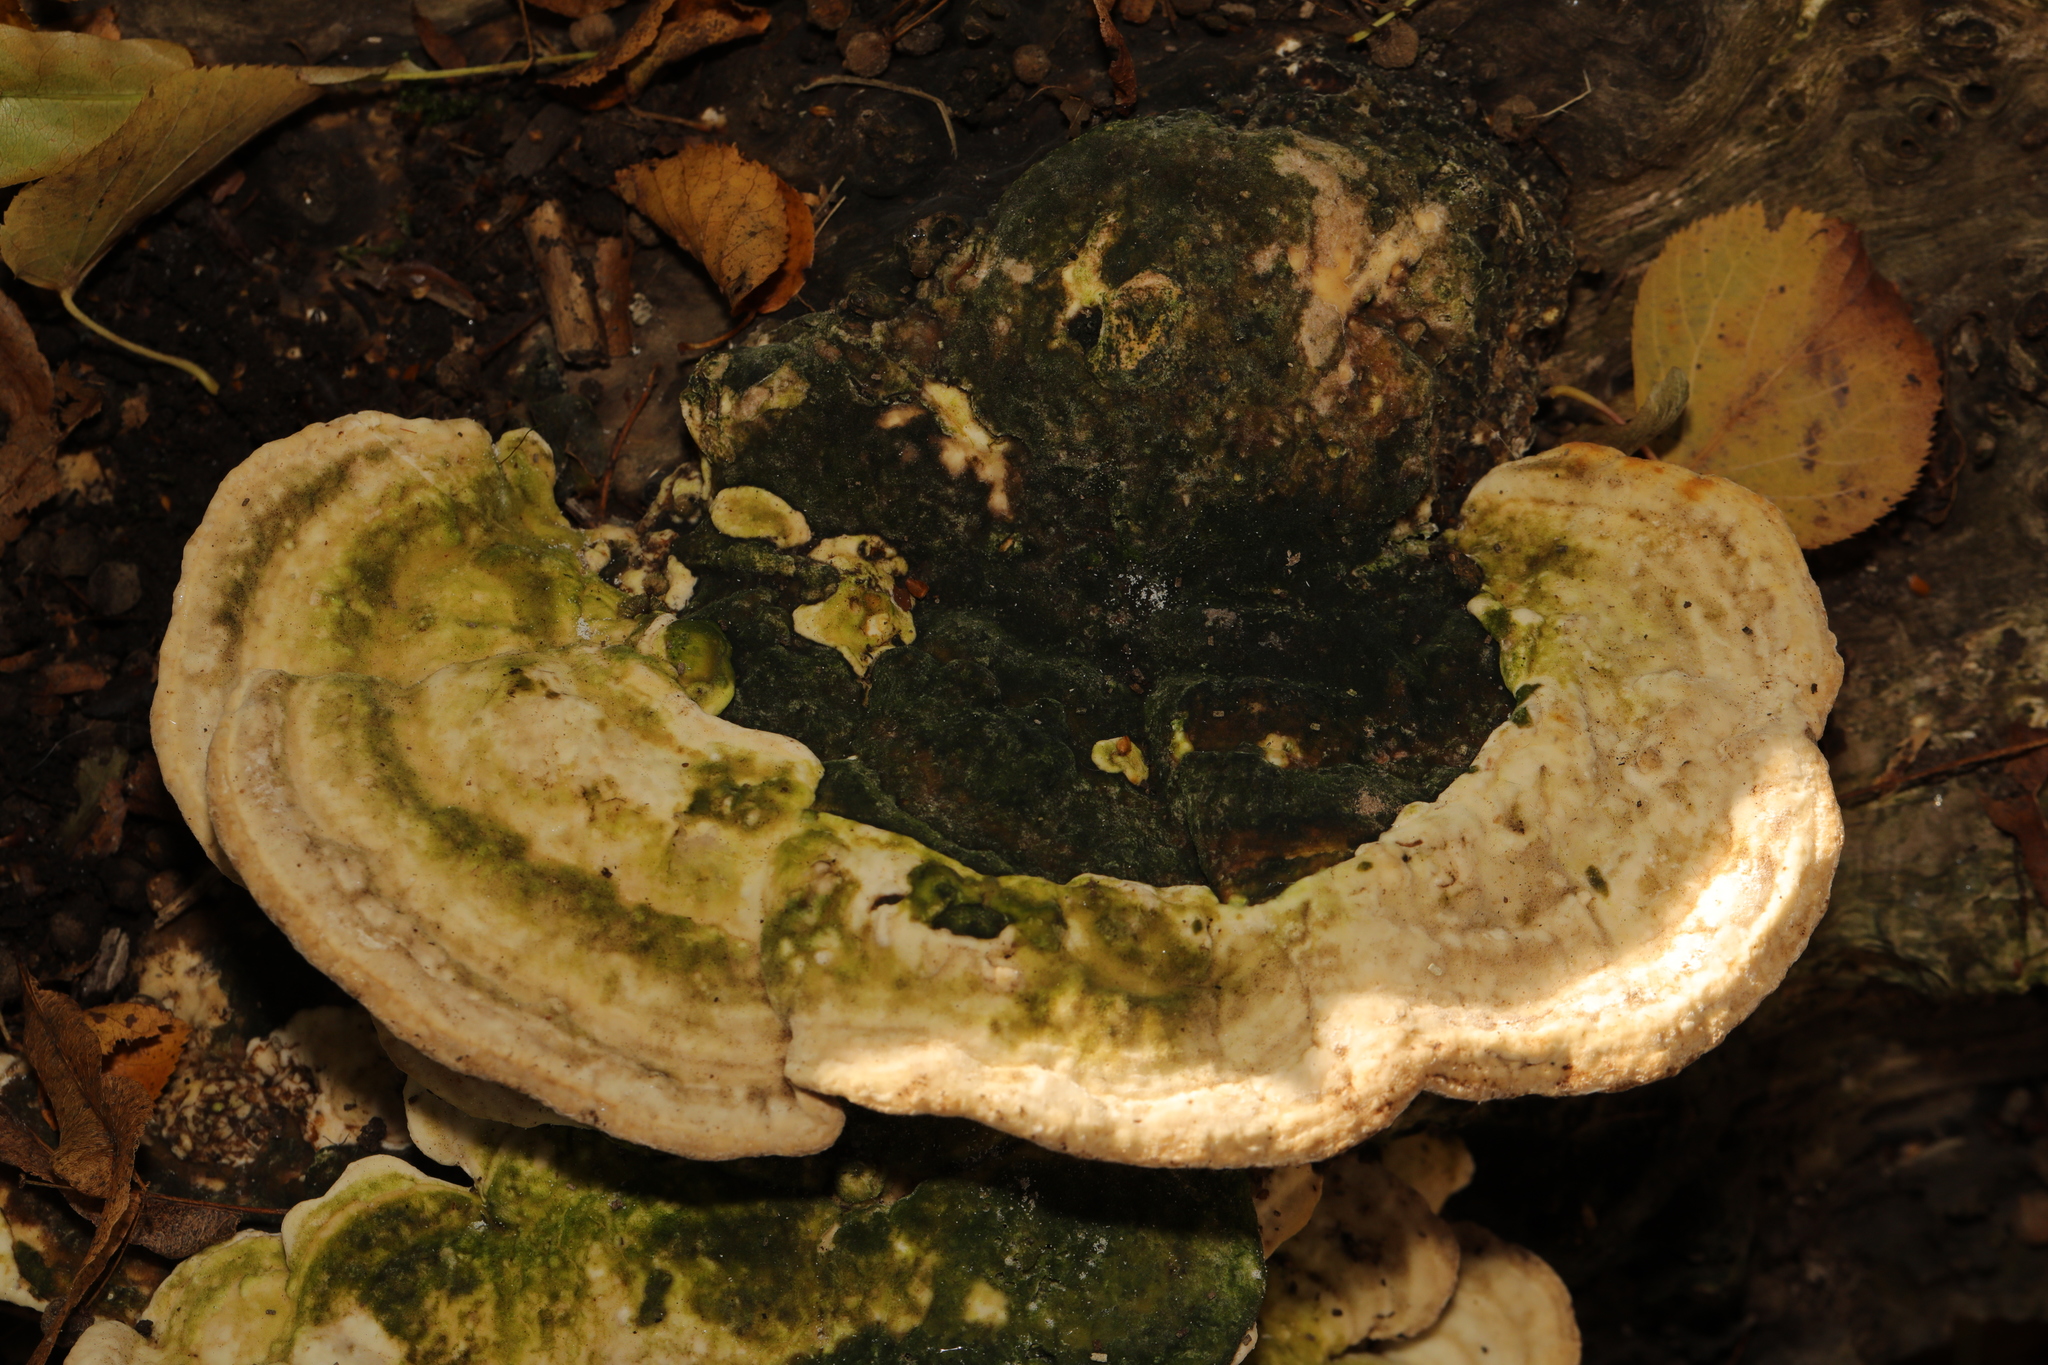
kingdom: Fungi
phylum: Basidiomycota
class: Agaricomycetes
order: Polyporales
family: Polyporaceae
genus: Trametes
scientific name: Trametes gibbosa
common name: Lumpy bracket
